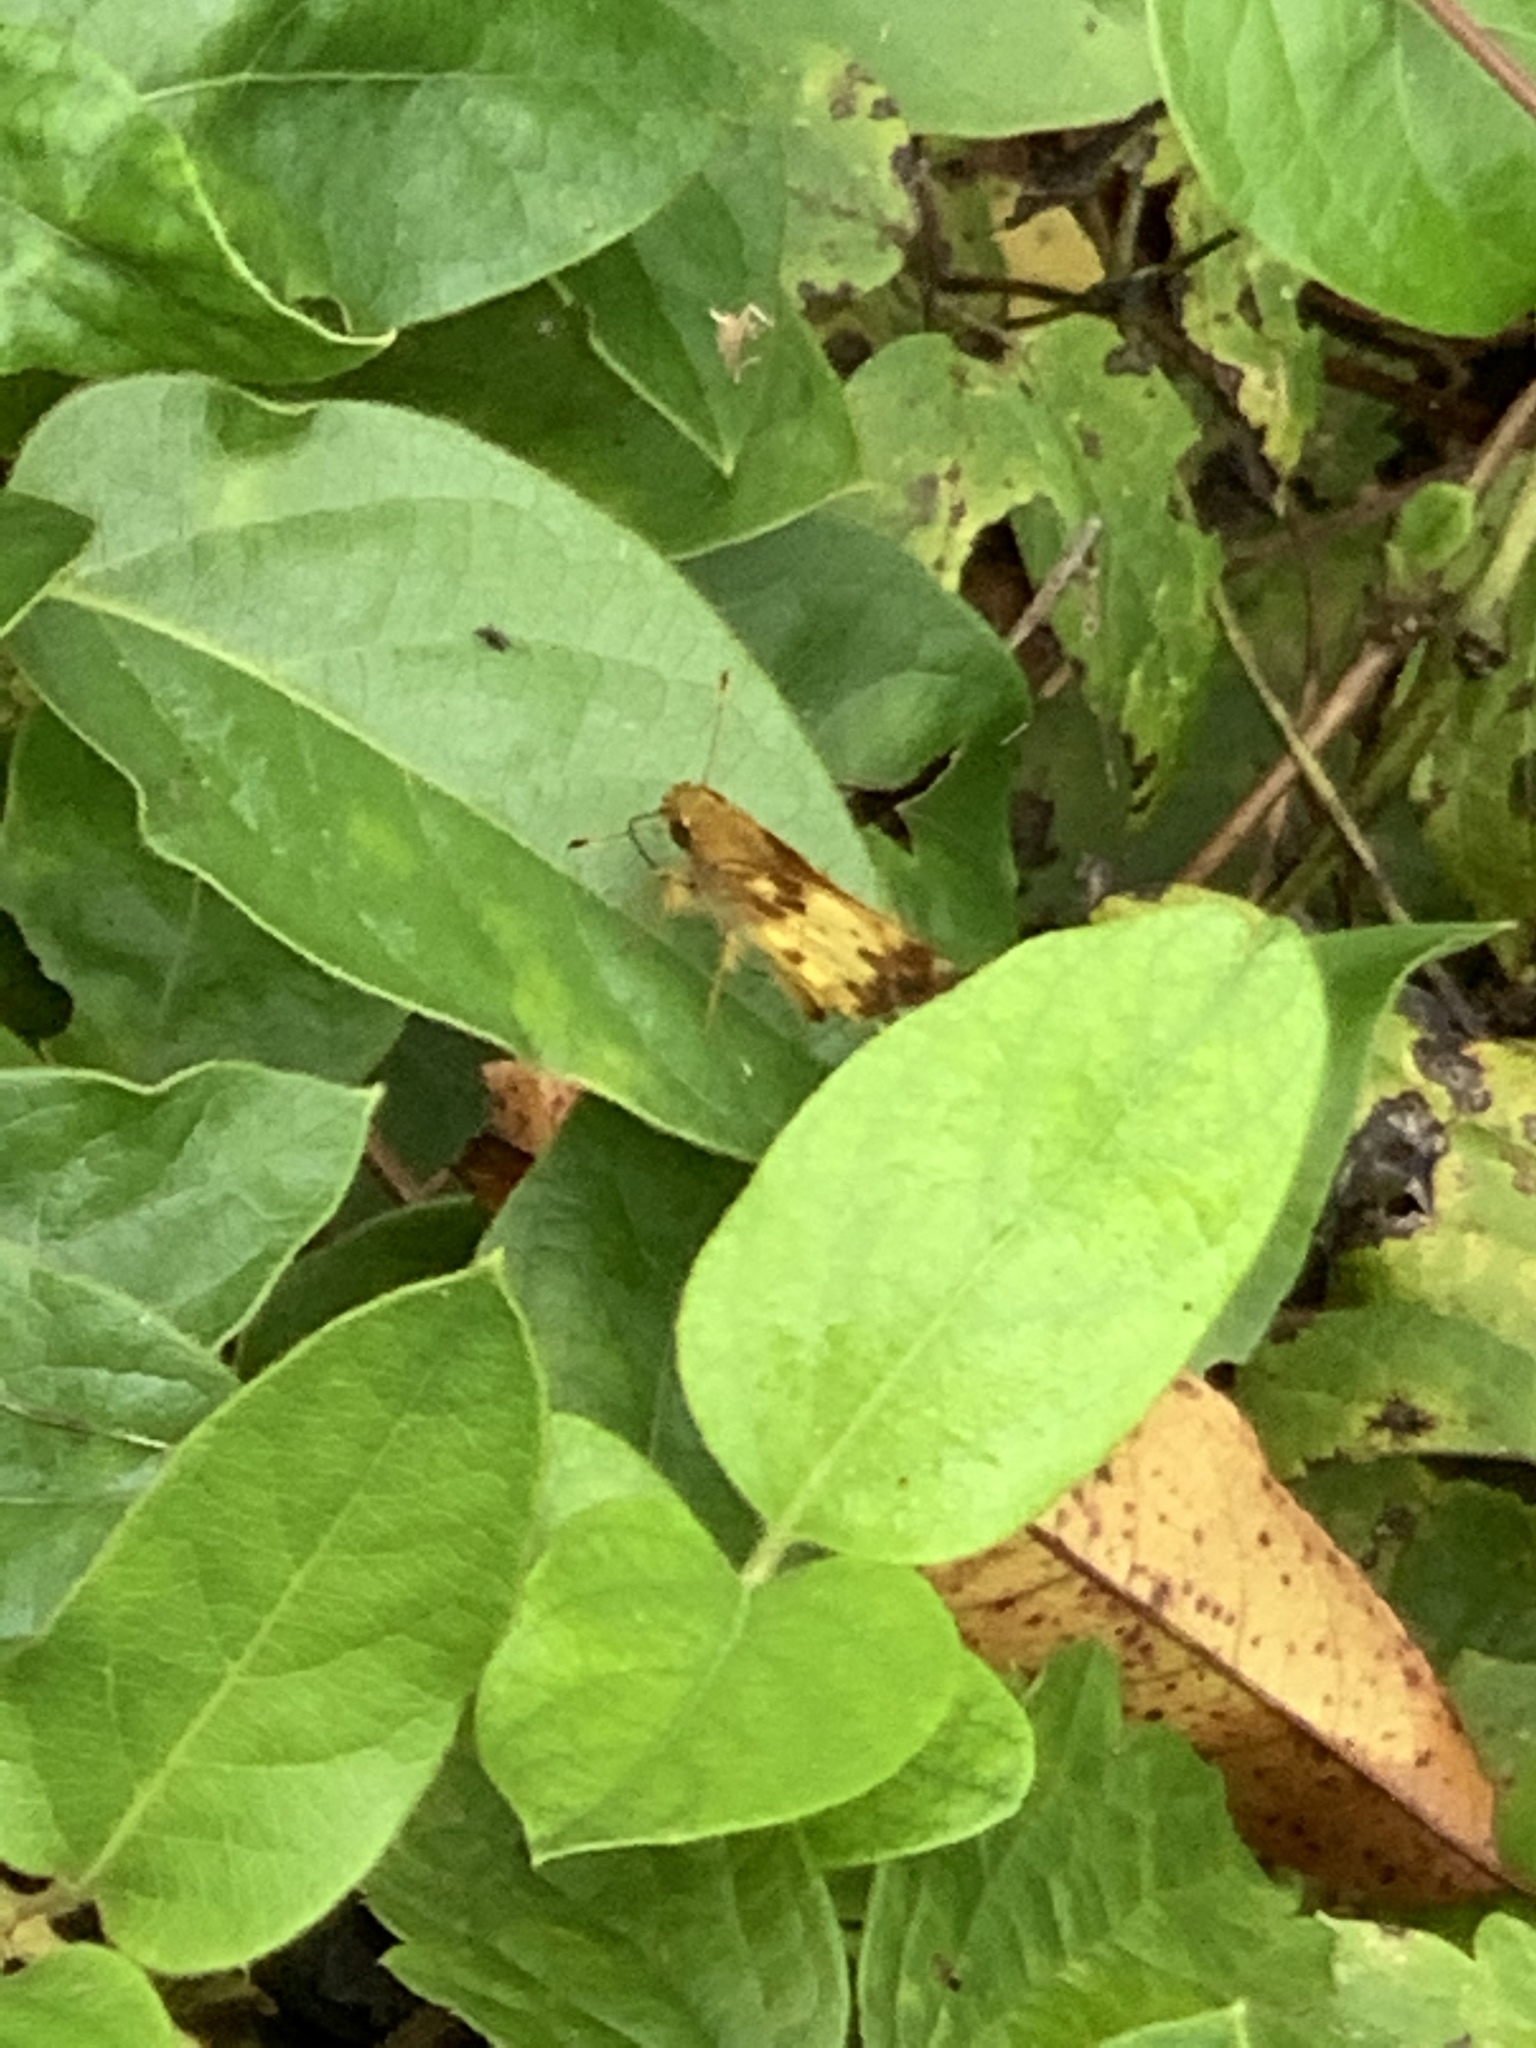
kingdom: Animalia
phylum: Arthropoda
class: Insecta
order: Lepidoptera
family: Hesperiidae
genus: Lon
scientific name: Lon zabulon
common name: Zabulon skipper
